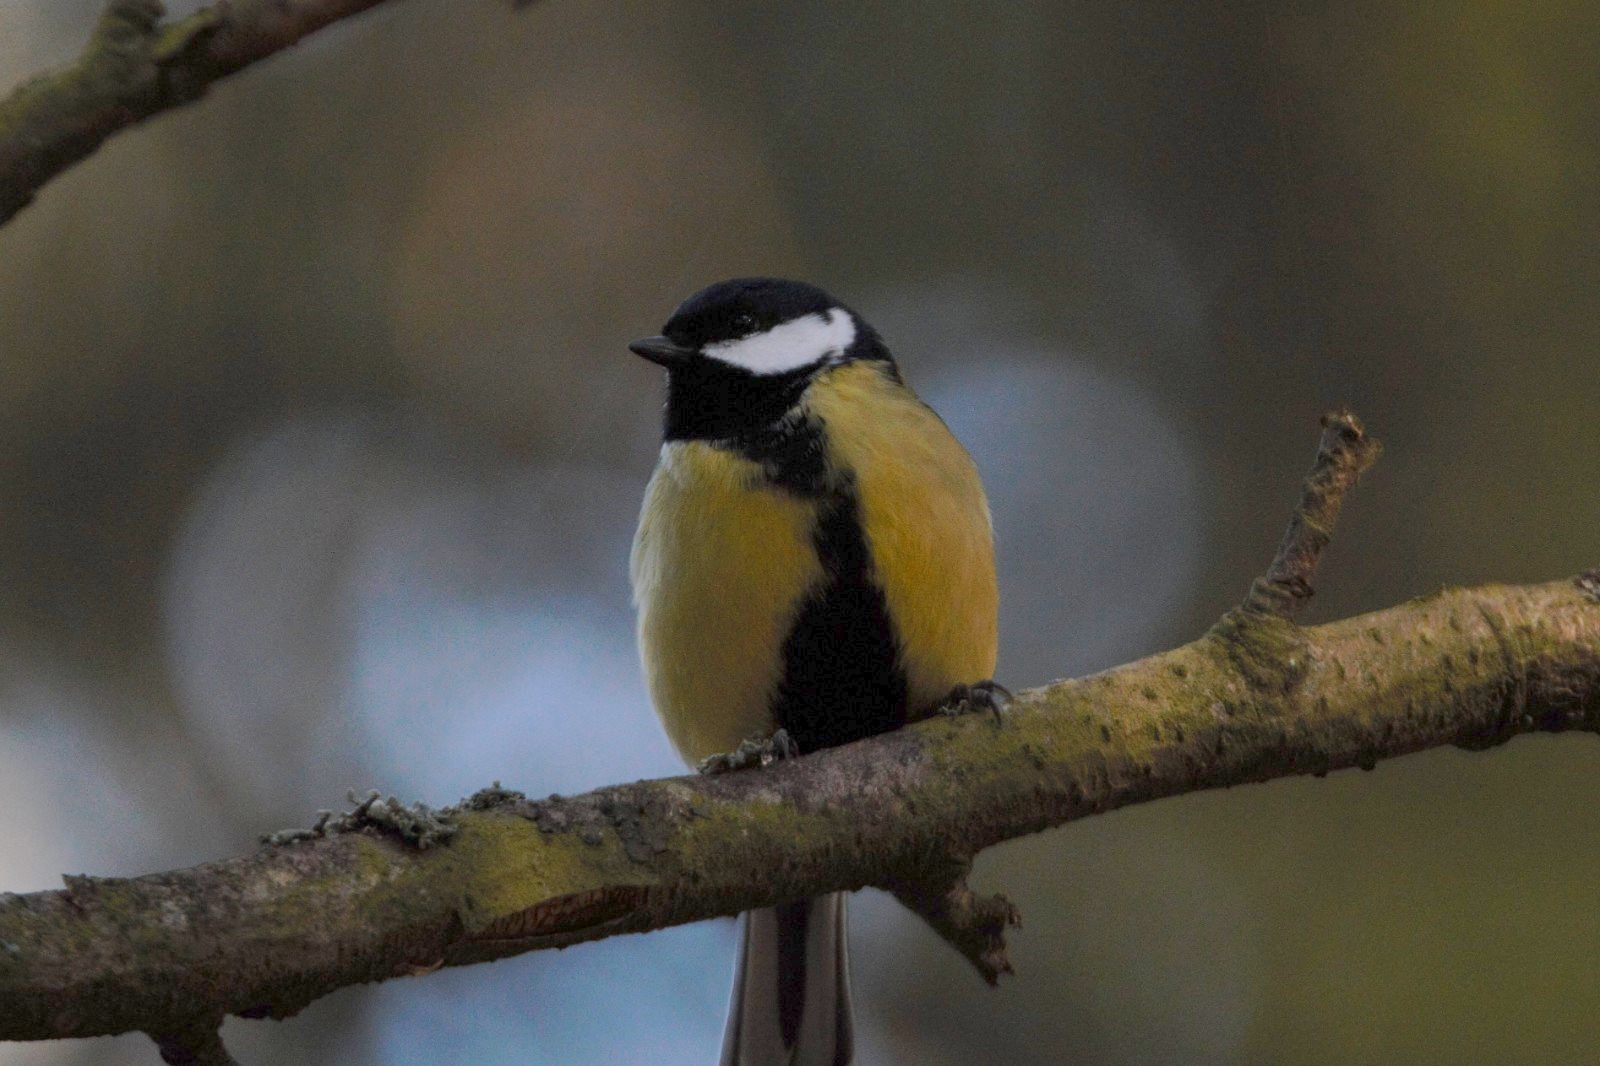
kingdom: Animalia
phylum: Chordata
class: Aves
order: Passeriformes
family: Paridae
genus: Parus
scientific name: Parus major
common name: Great tit
